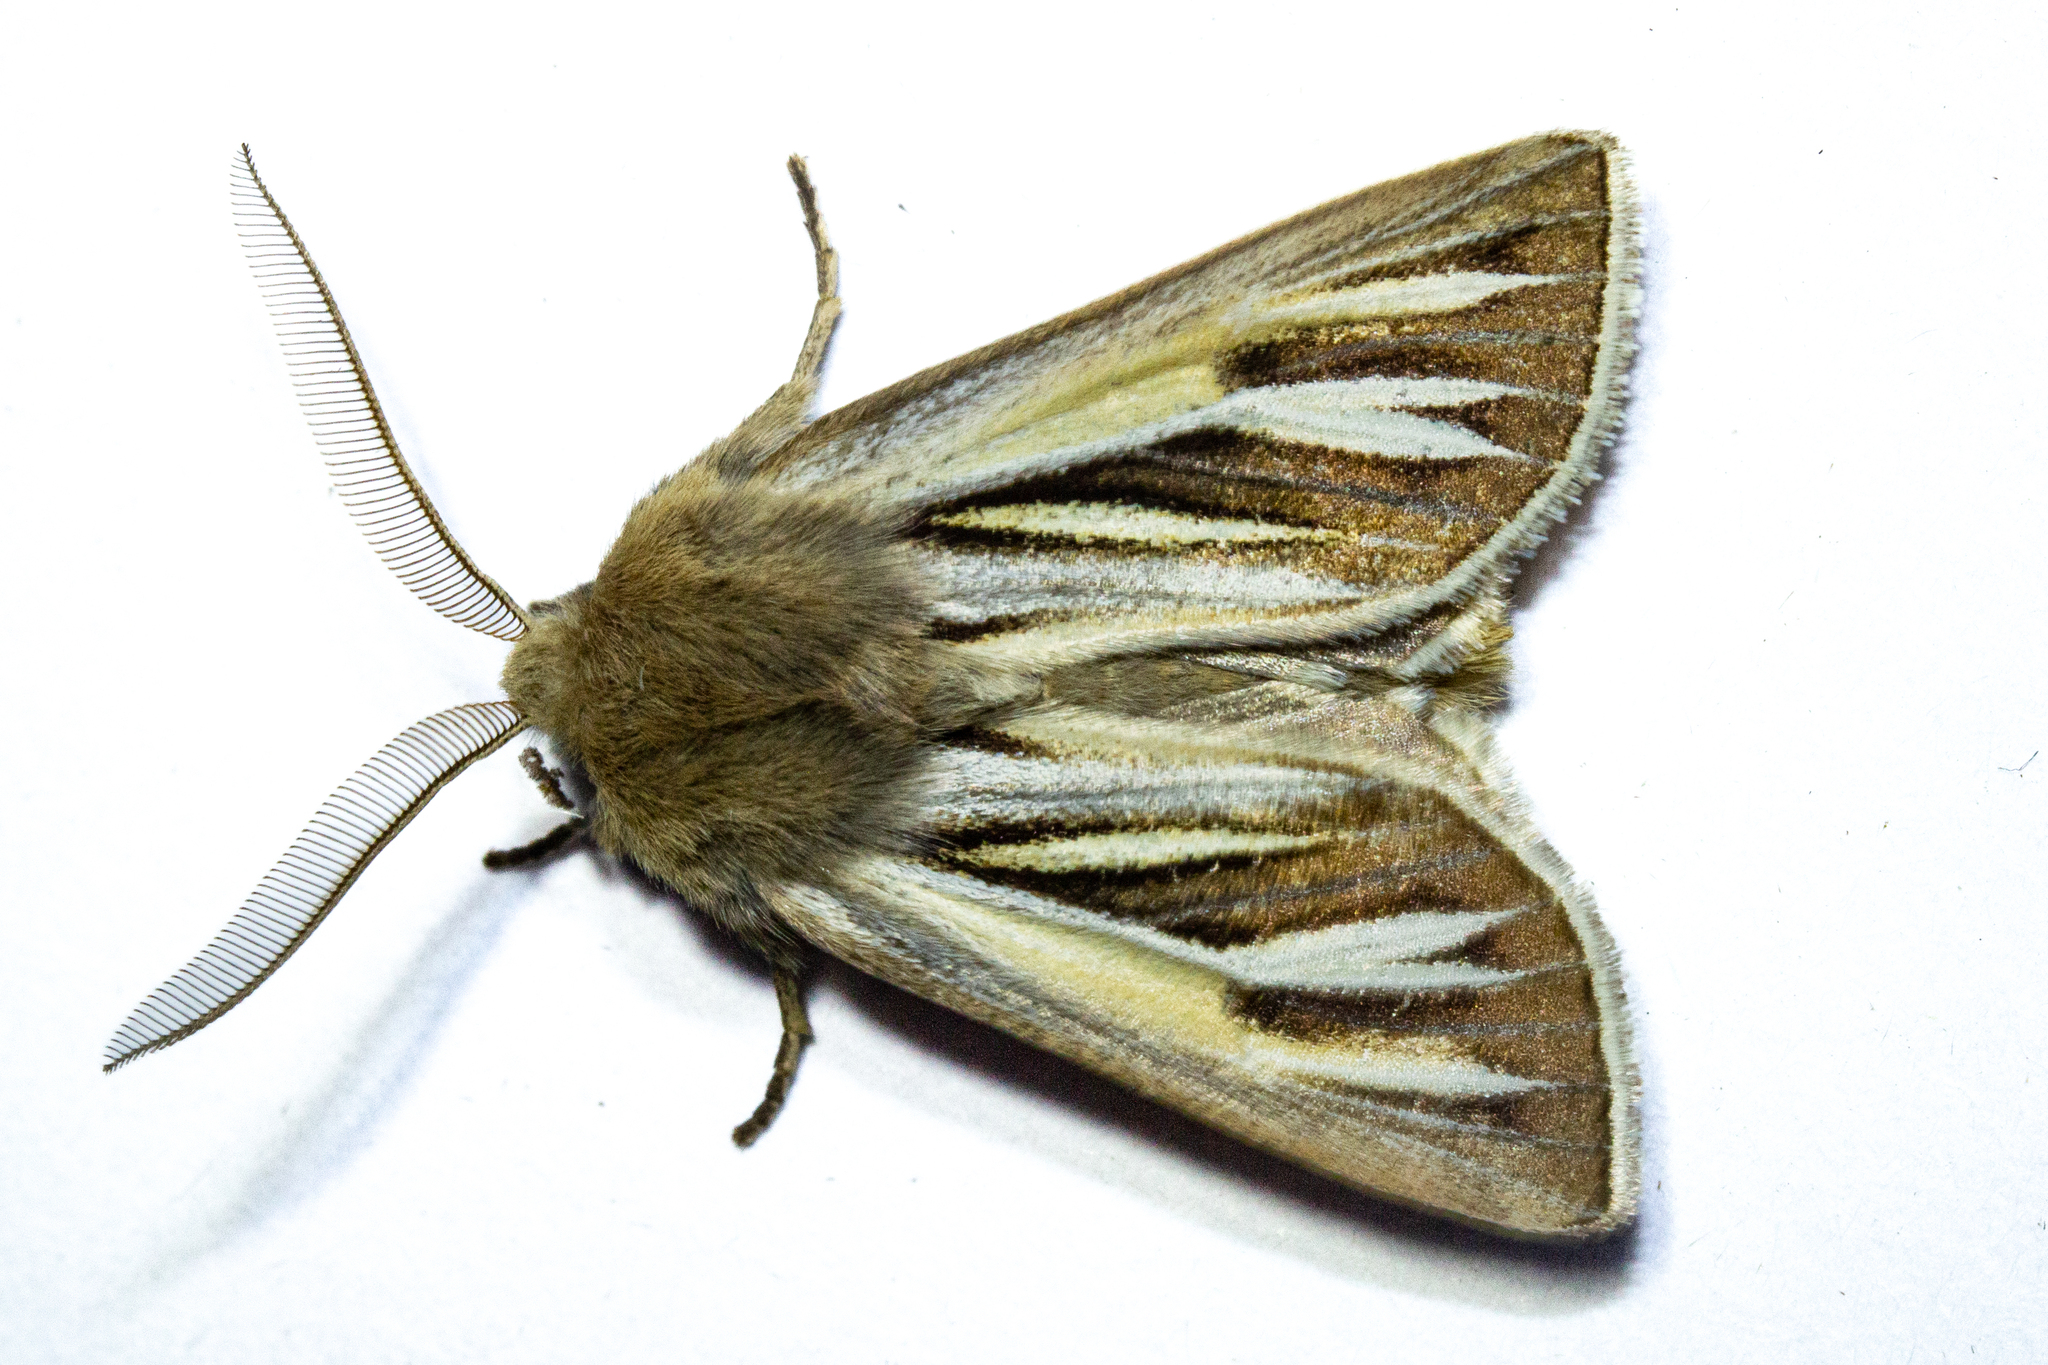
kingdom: Animalia
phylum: Arthropoda
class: Insecta
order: Lepidoptera
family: Noctuidae
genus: Ichneutica
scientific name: Ichneutica caraunias
